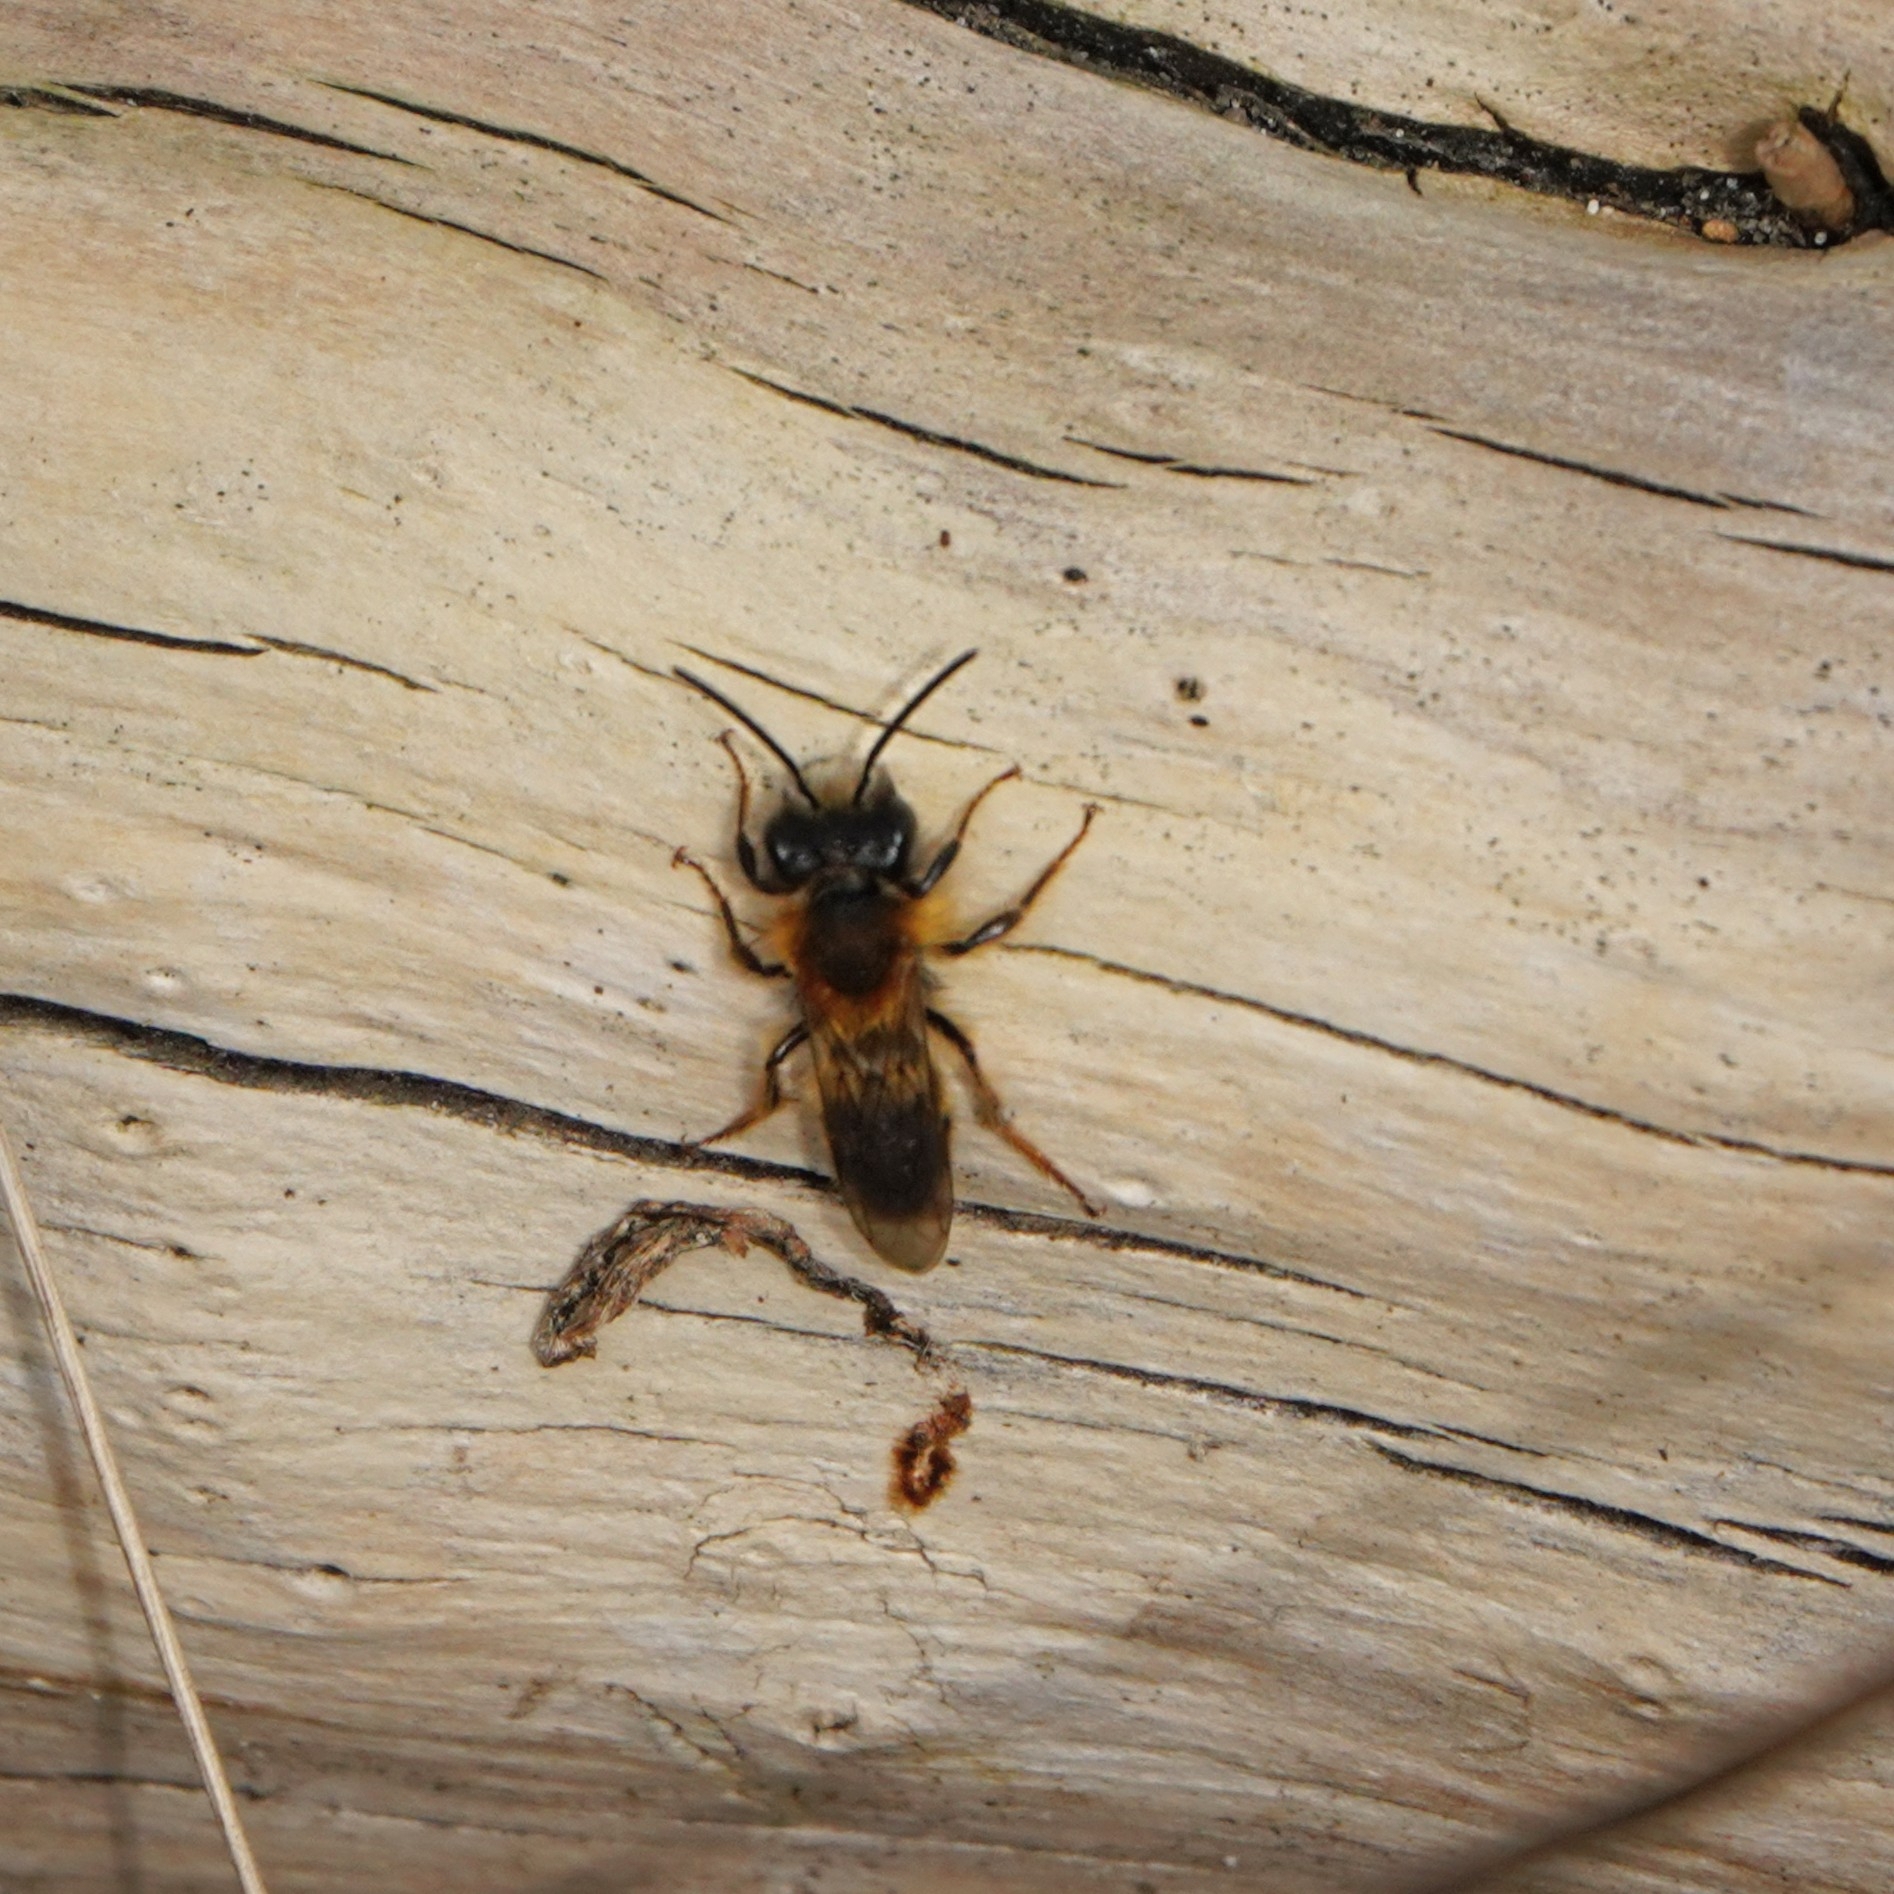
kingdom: Animalia
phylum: Arthropoda
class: Insecta
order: Hymenoptera
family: Andrenidae
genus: Andrena
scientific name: Andrena fulva
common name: Tawny mining bee
